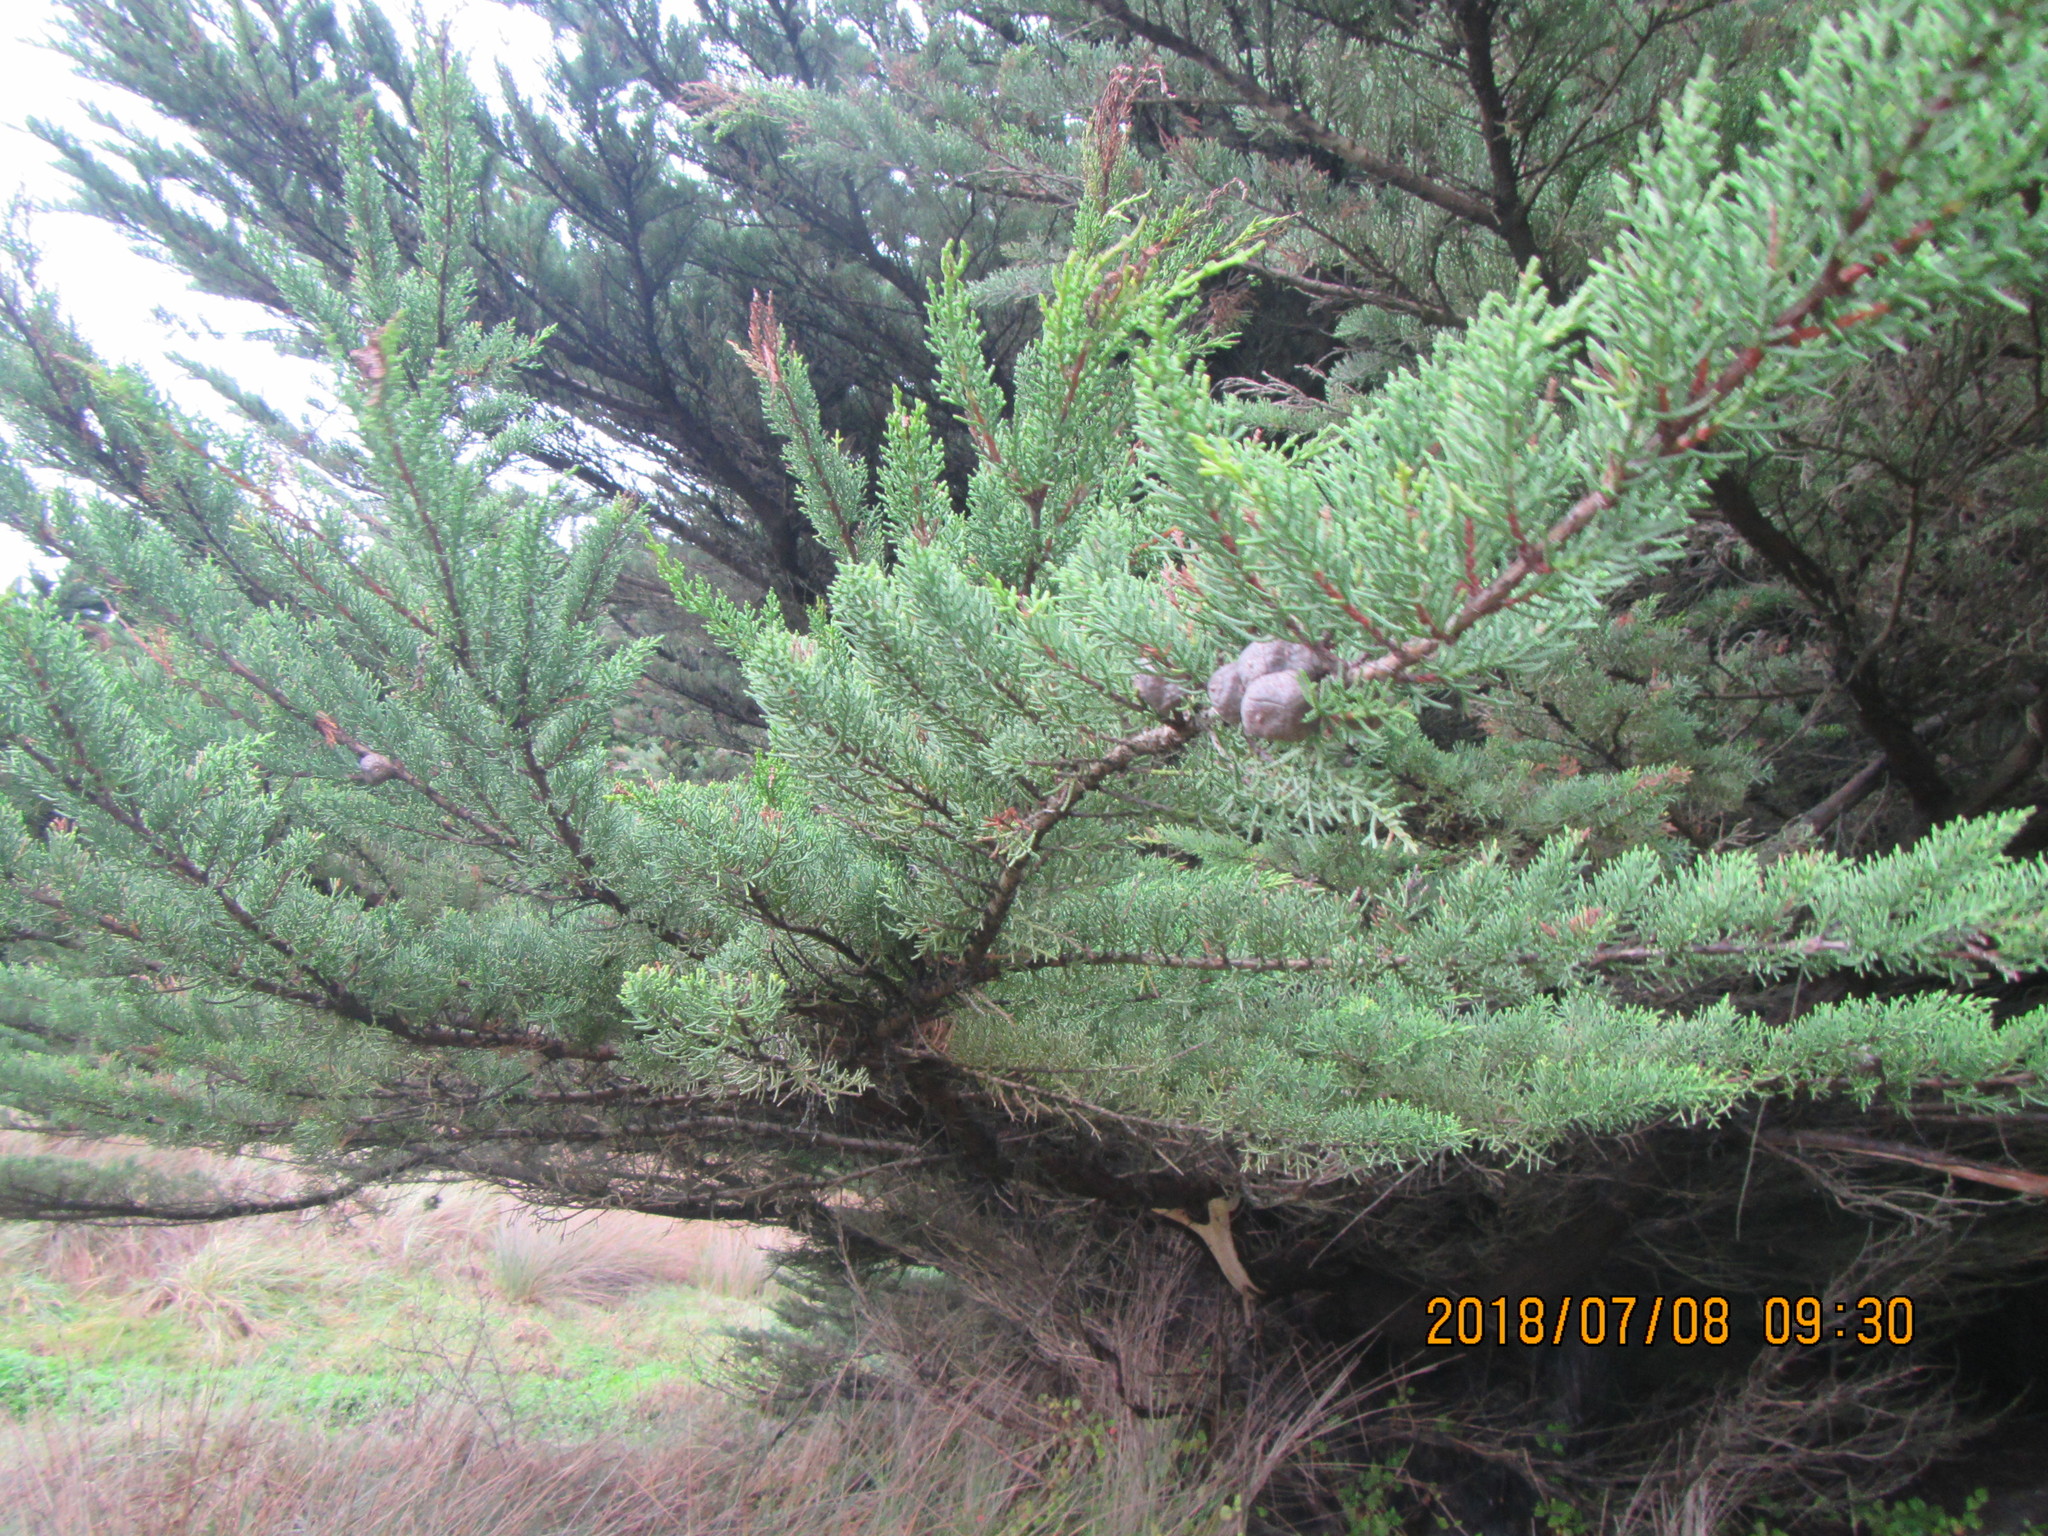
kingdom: Plantae
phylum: Tracheophyta
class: Pinopsida
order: Pinales
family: Cupressaceae
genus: Cupressus
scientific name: Cupressus macrocarpa
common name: Monterey cypress
